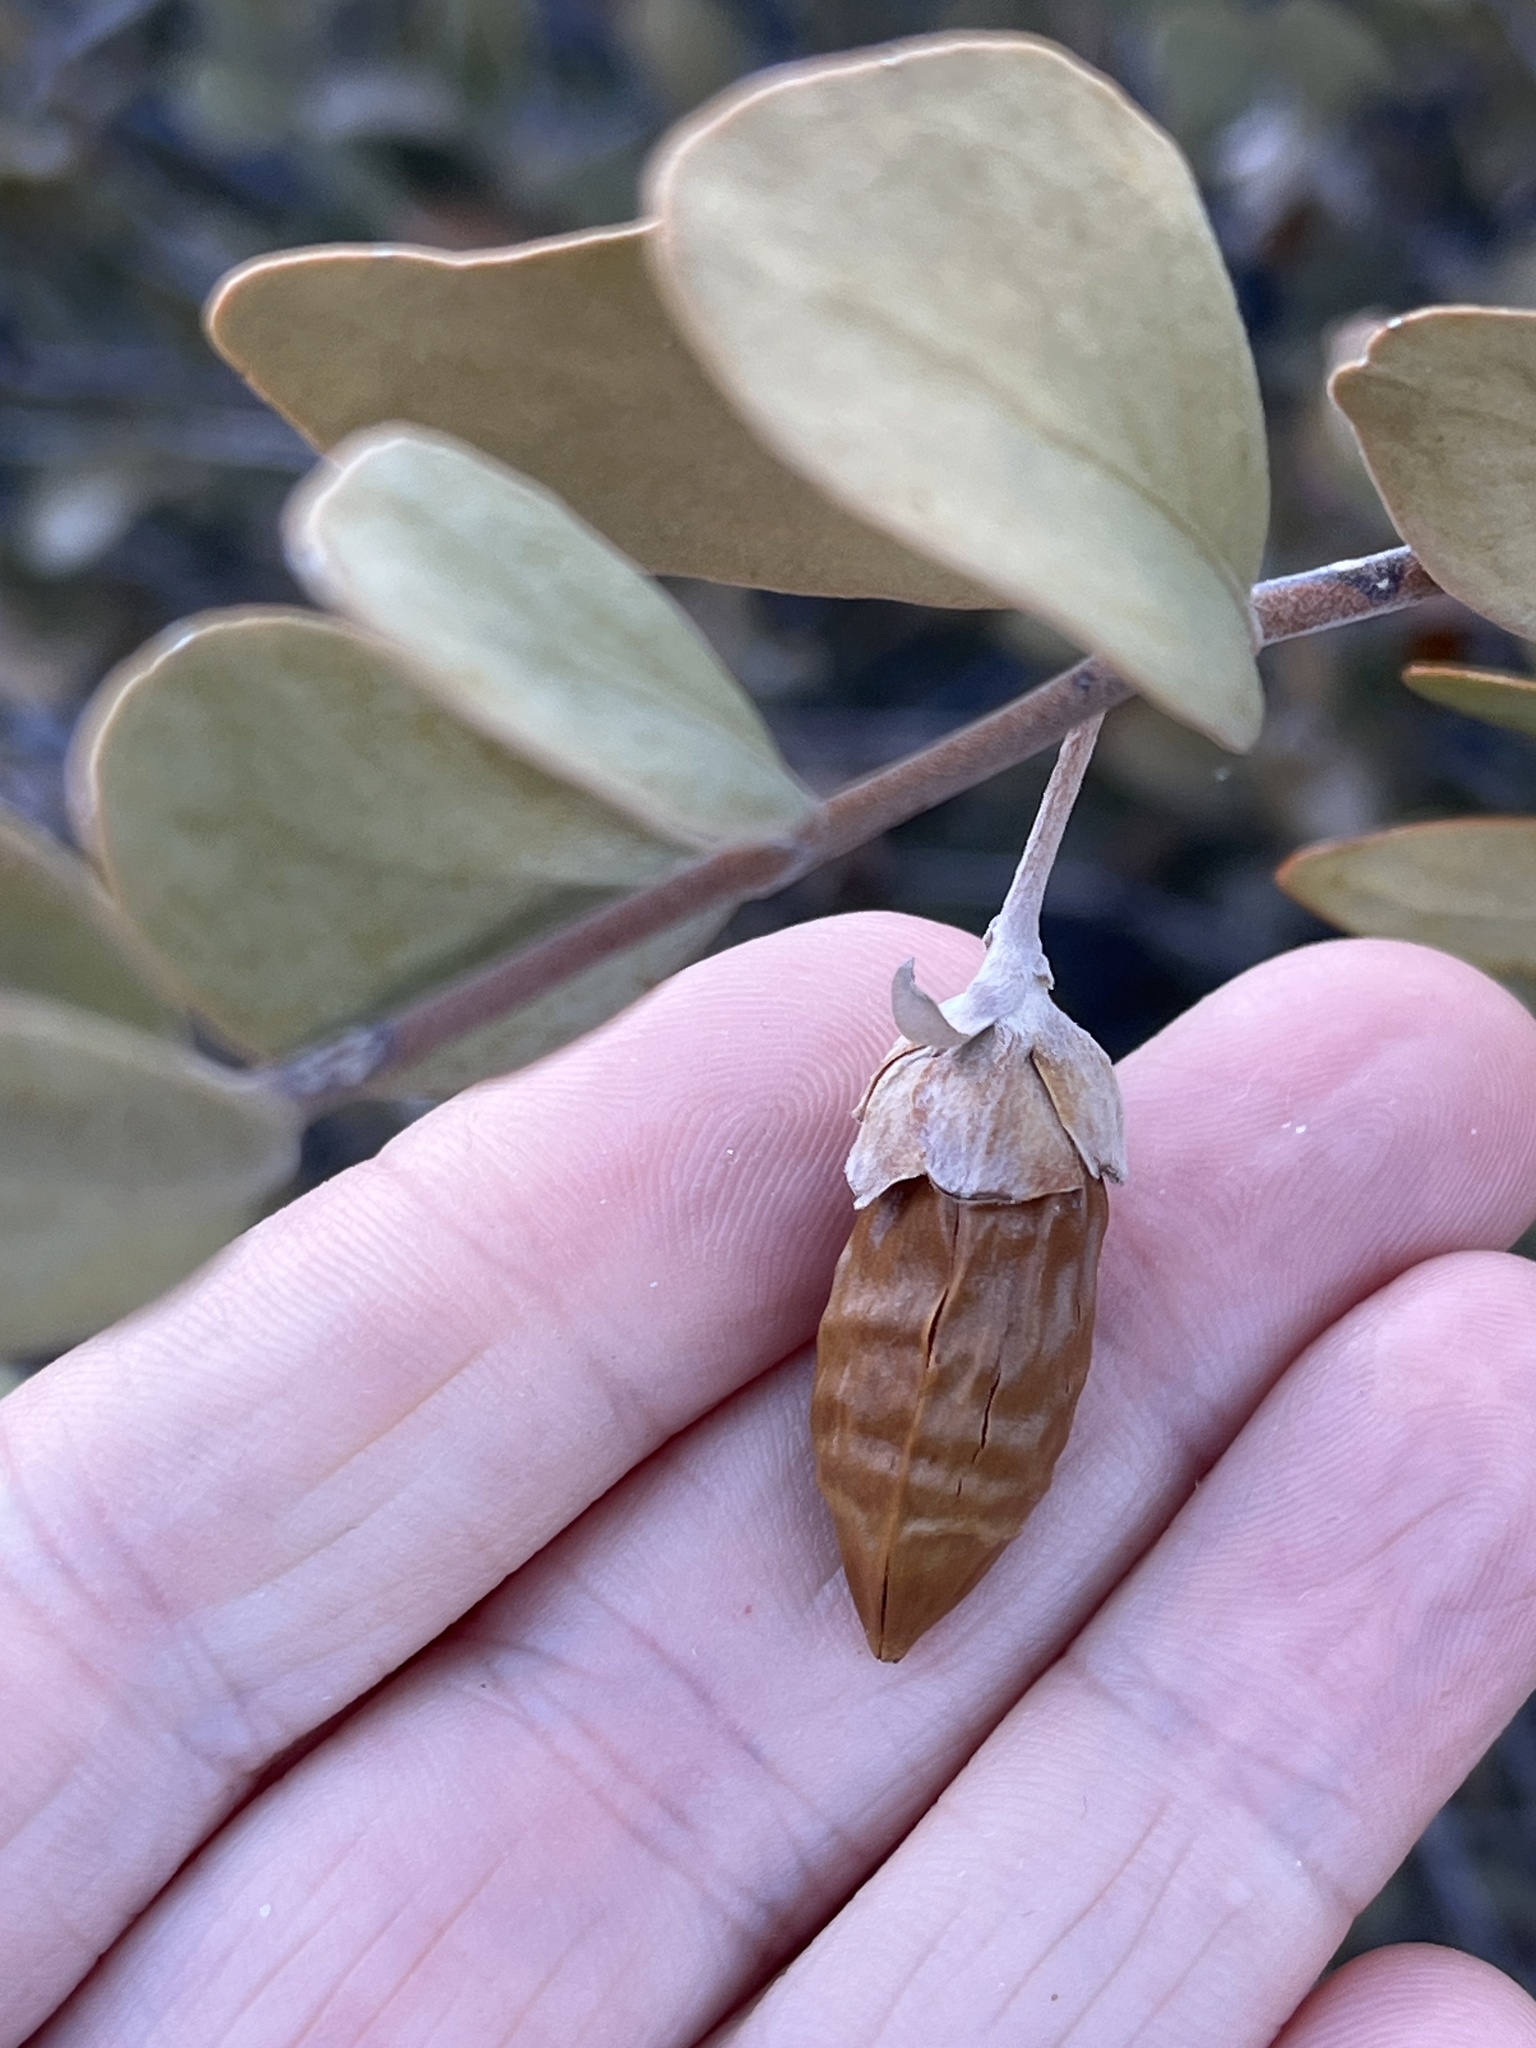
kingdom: Plantae
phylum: Tracheophyta
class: Magnoliopsida
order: Caryophyllales
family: Simmondsiaceae
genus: Simmondsia
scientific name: Simmondsia chinensis
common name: Jojoba
